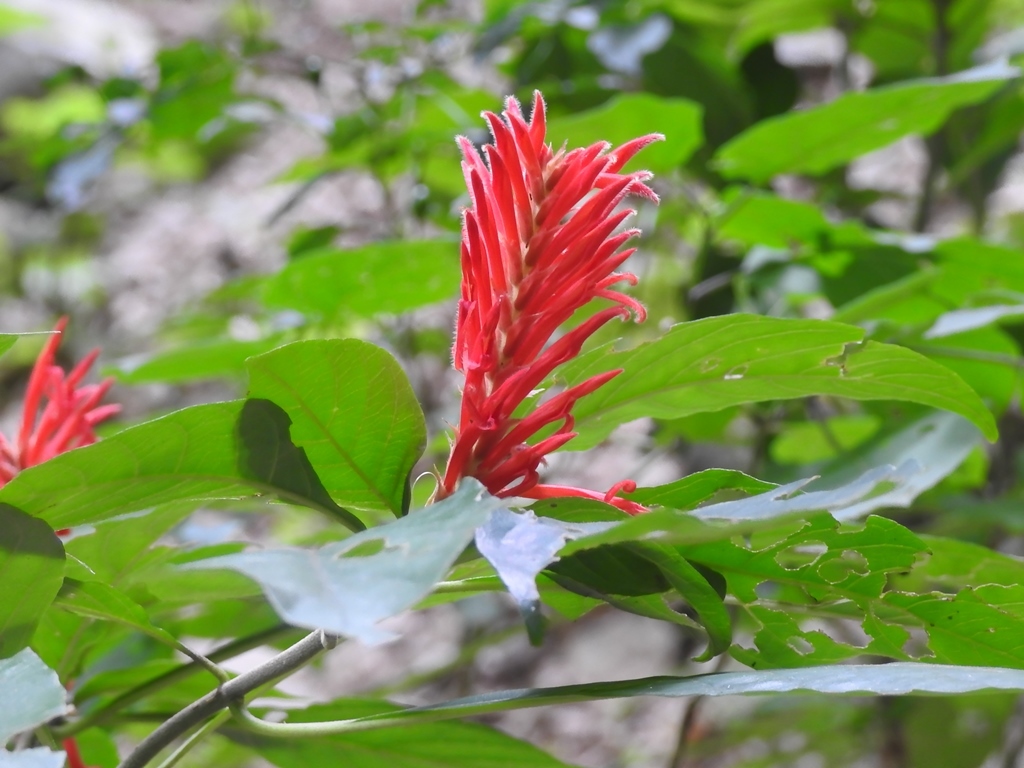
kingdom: Plantae
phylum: Tracheophyta
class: Magnoliopsida
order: Lamiales
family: Acanthaceae
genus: Aphelandra
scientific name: Aphelandra scabra
